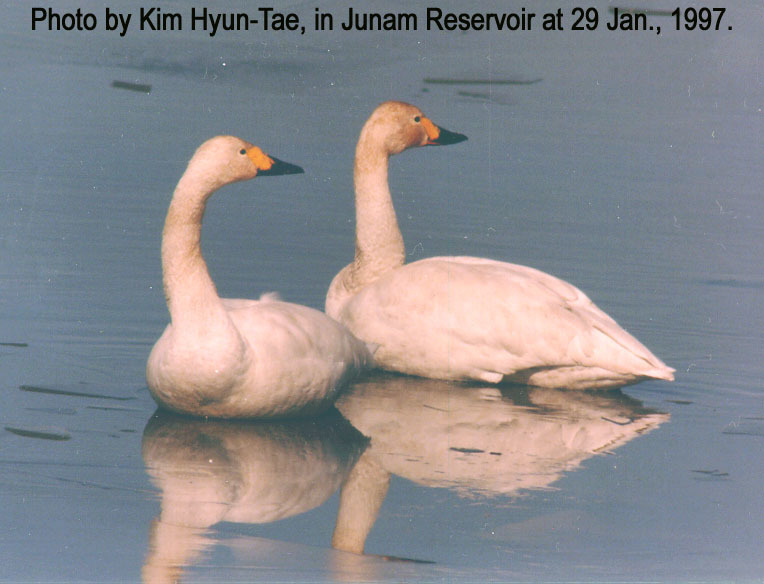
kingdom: Animalia
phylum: Chordata
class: Aves
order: Anseriformes
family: Anatidae
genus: Cygnus
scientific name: Cygnus cygnus
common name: Whooper swan
